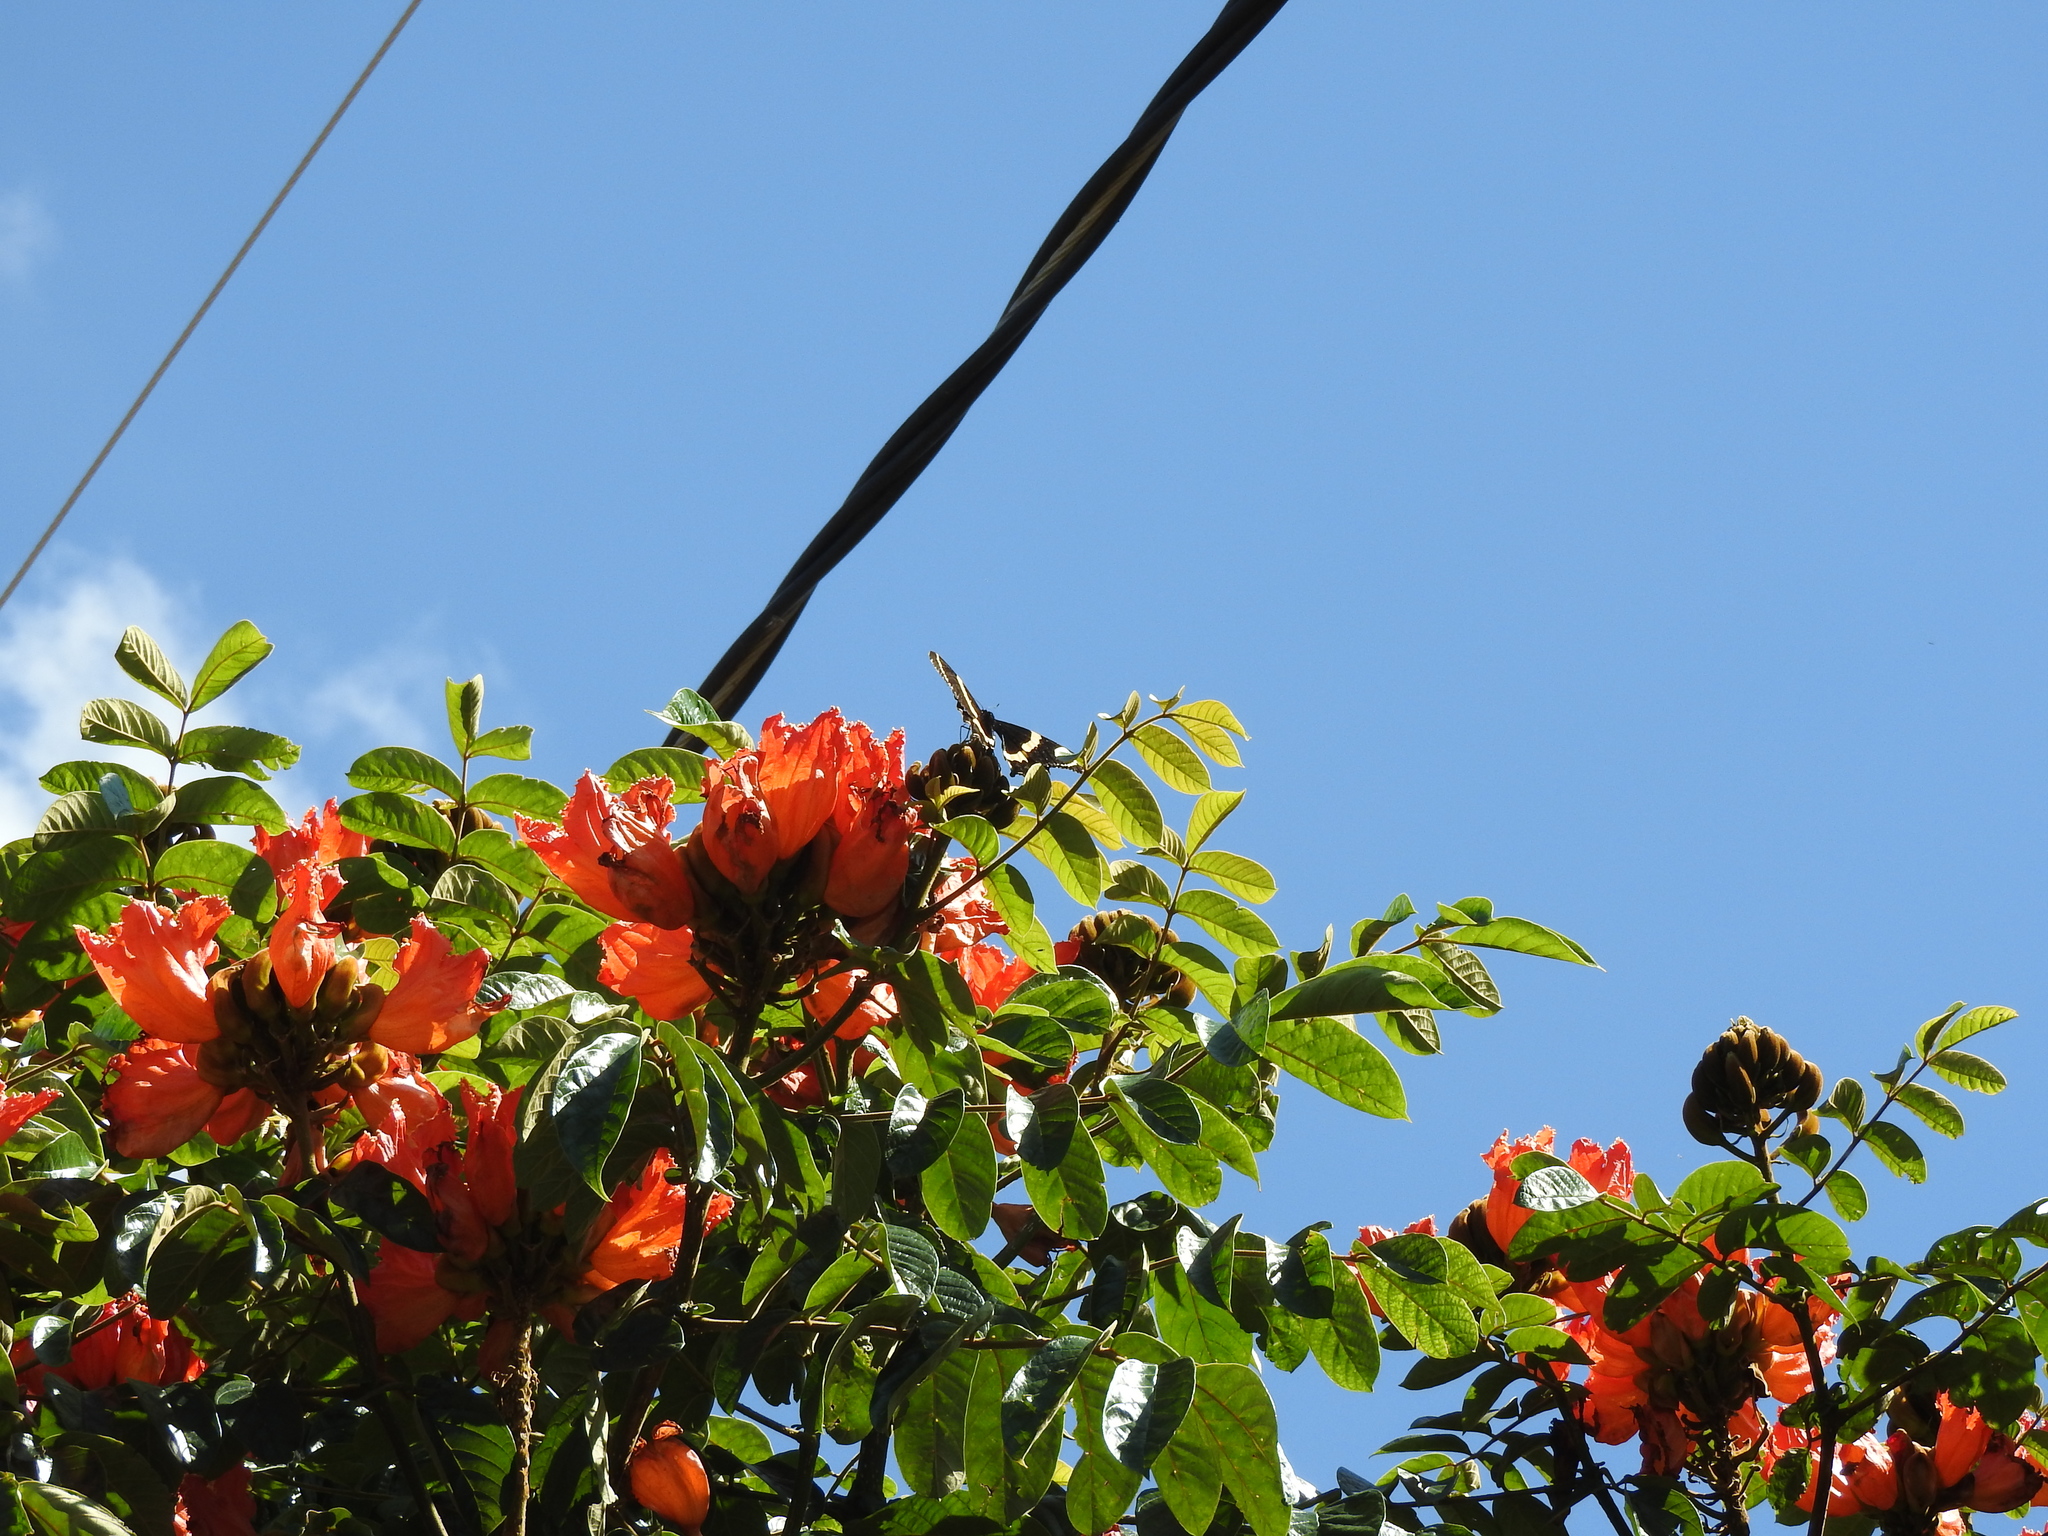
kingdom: Animalia
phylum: Arthropoda
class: Insecta
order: Lepidoptera
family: Papilionidae
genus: Papilio
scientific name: Papilio garamas
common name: Magnificent swallowtail
